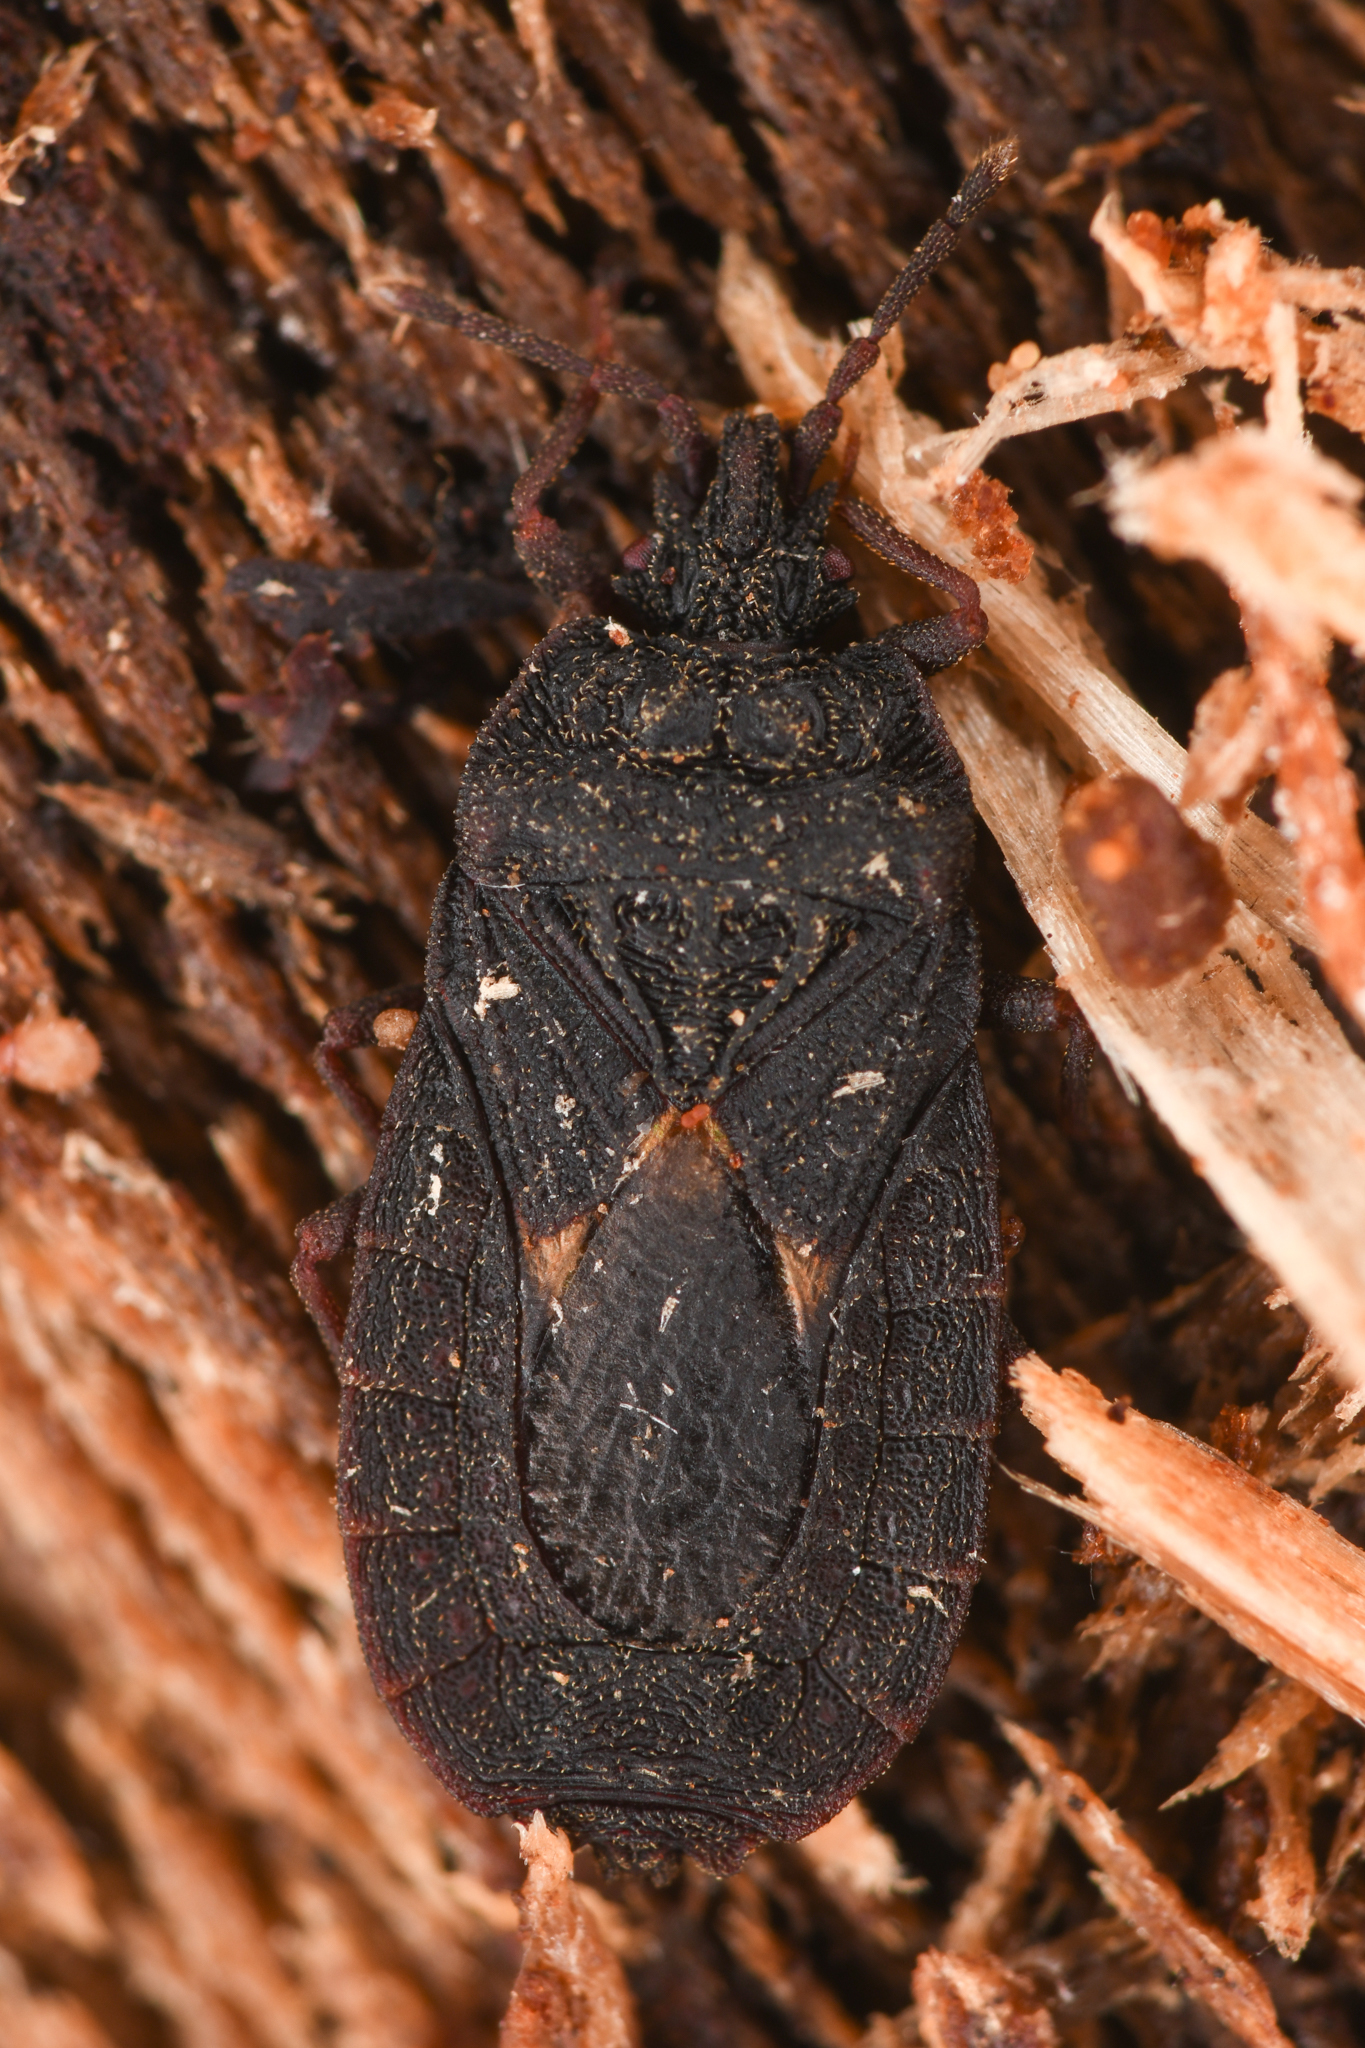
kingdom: Animalia
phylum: Arthropoda
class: Insecta
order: Hemiptera
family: Aradidae
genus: Mezira
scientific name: Mezira reducta
